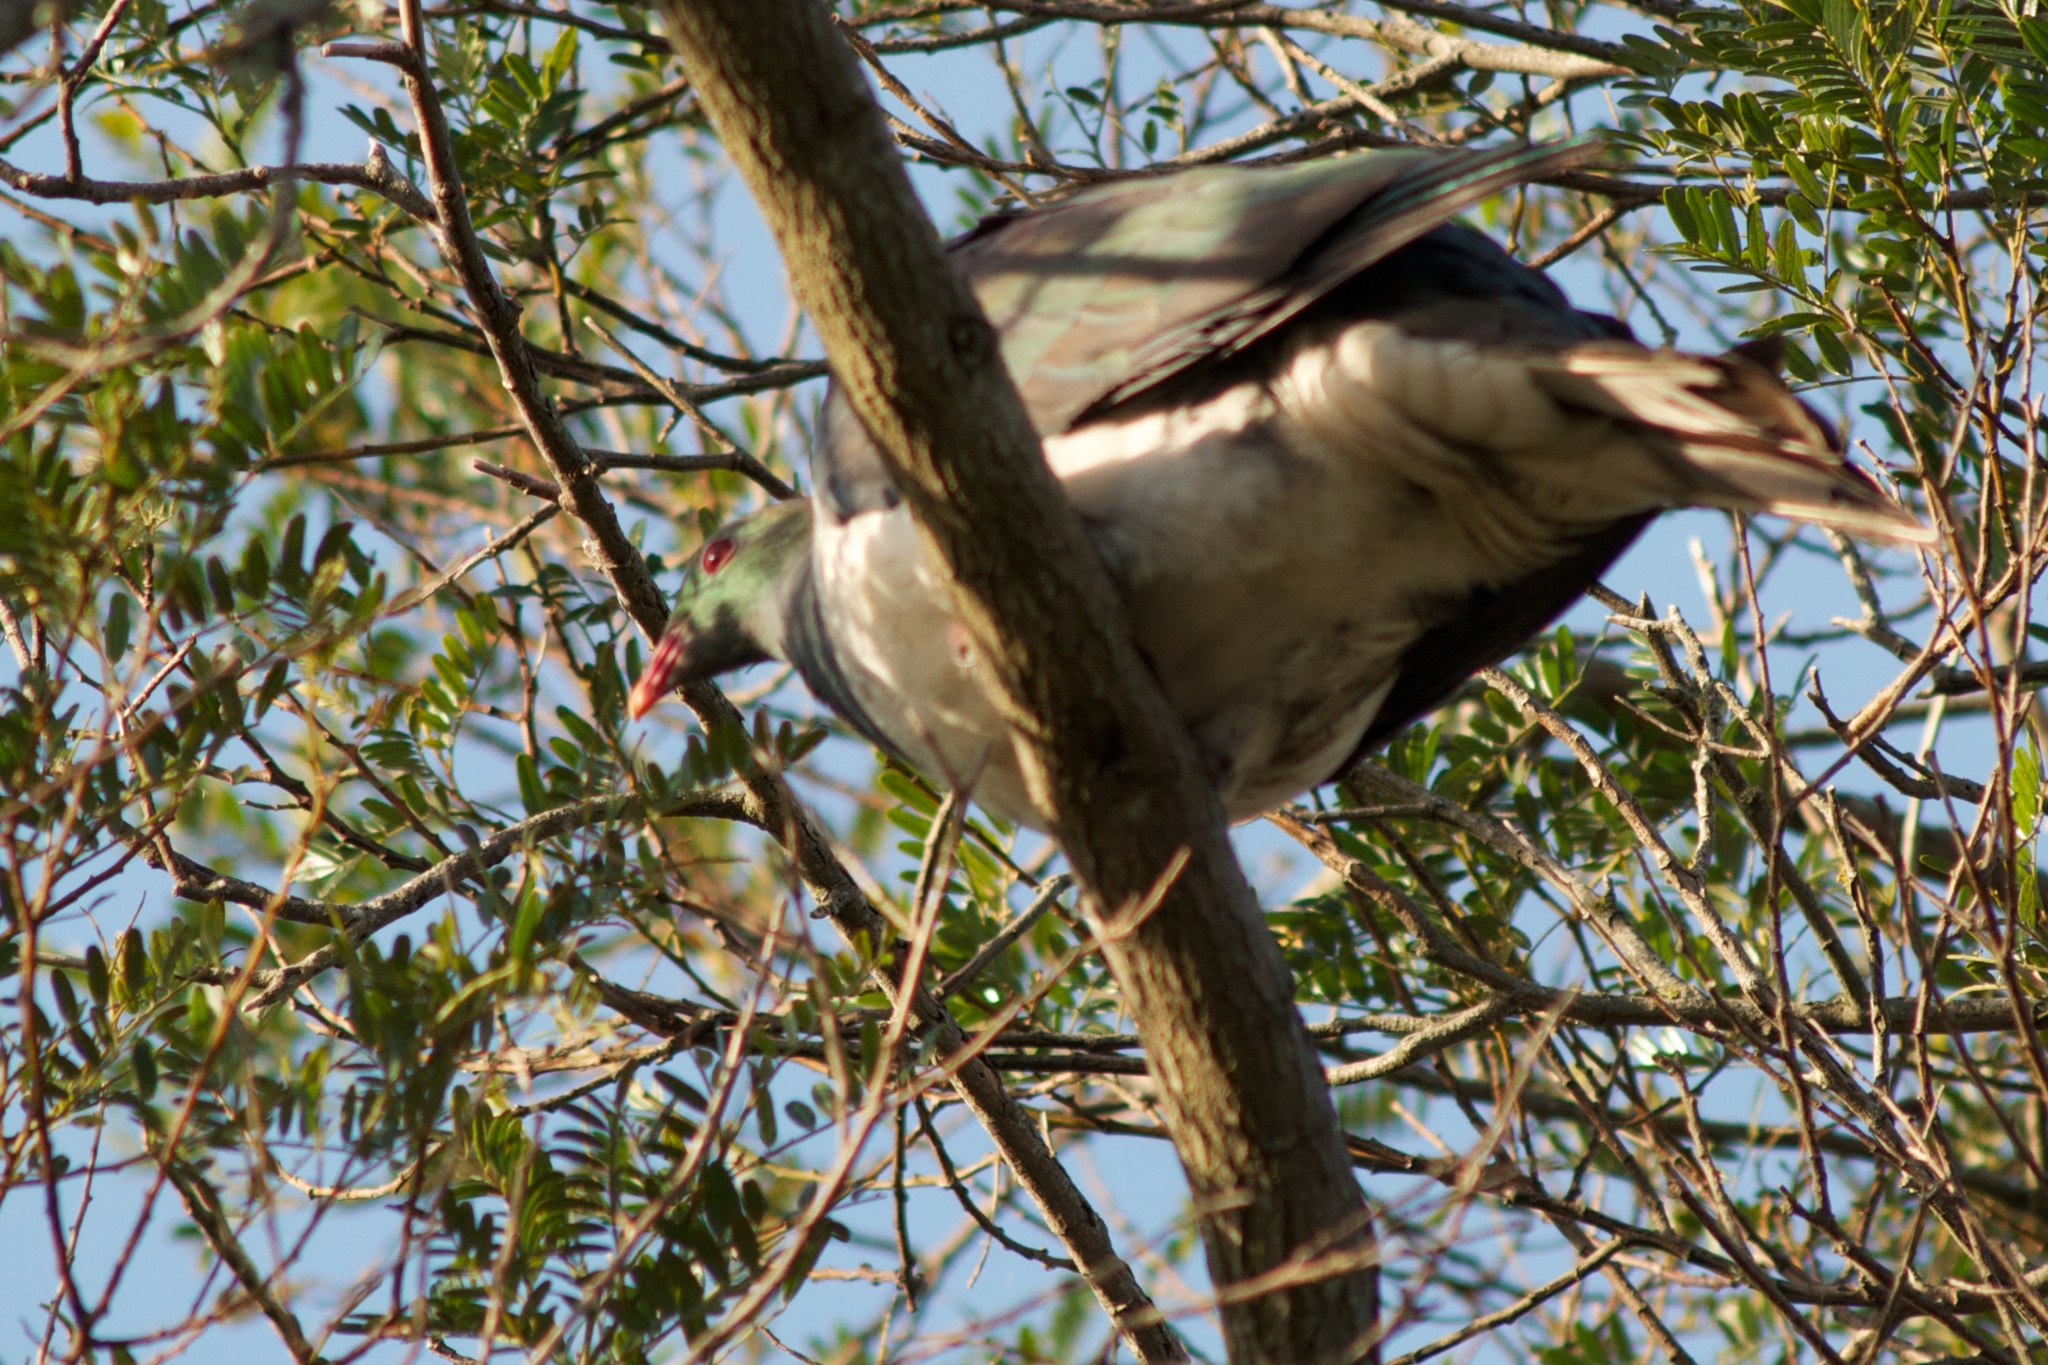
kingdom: Animalia
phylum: Chordata
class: Aves
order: Columbiformes
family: Columbidae
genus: Hemiphaga
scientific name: Hemiphaga novaeseelandiae
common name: New zealand pigeon
